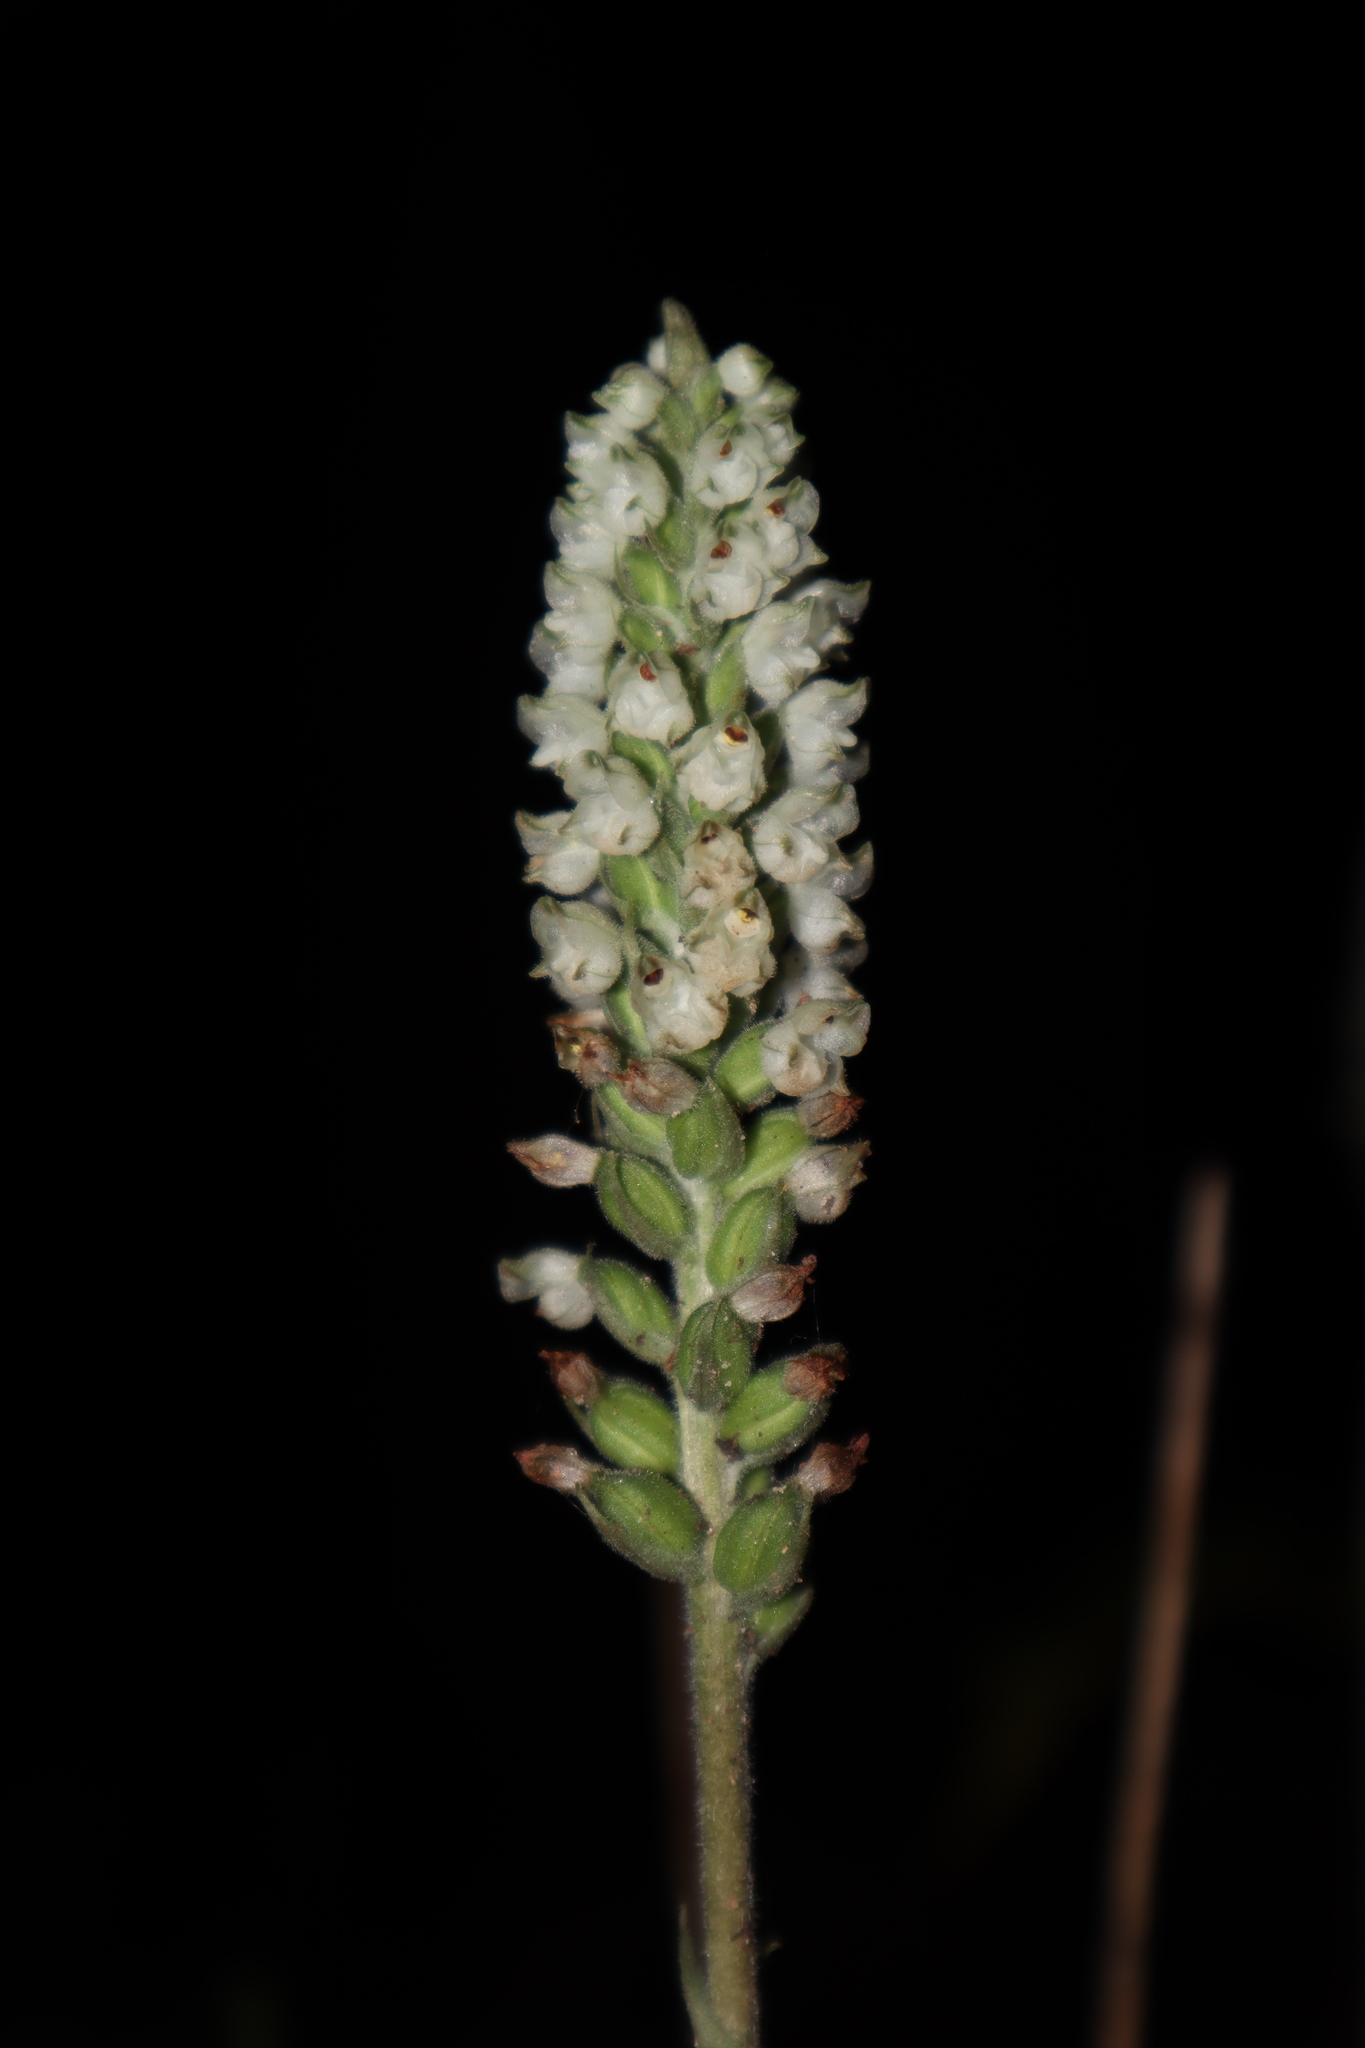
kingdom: Plantae
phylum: Tracheophyta
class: Liliopsida
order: Asparagales
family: Orchidaceae
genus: Goodyera
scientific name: Goodyera pubescens
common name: Downy rattlesnake-plantain
